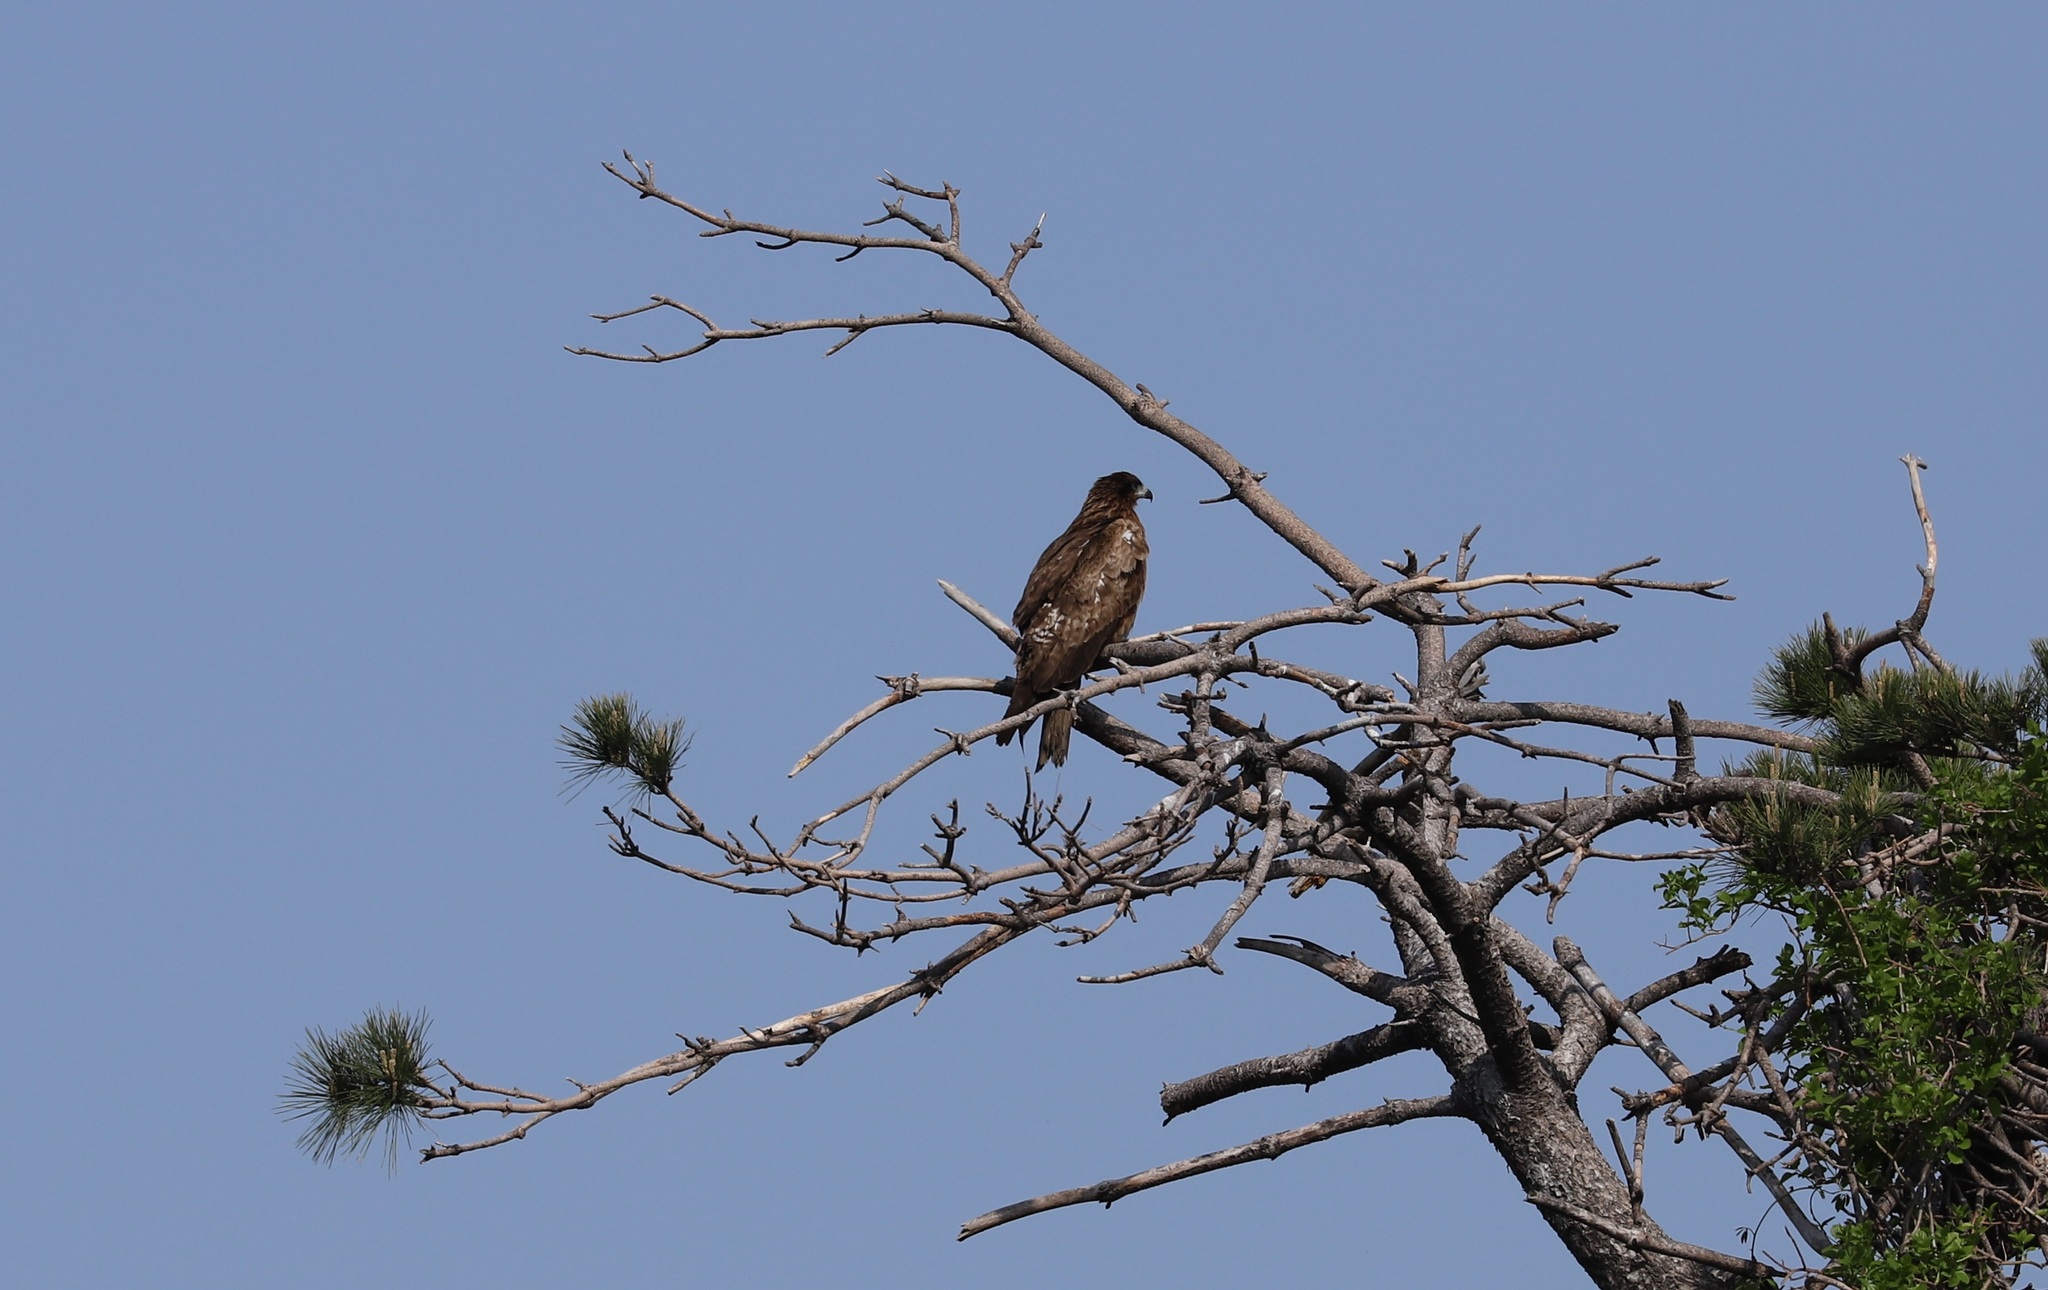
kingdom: Animalia
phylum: Chordata
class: Aves
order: Accipitriformes
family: Accipitridae
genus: Milvus
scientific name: Milvus migrans
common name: Black kite
